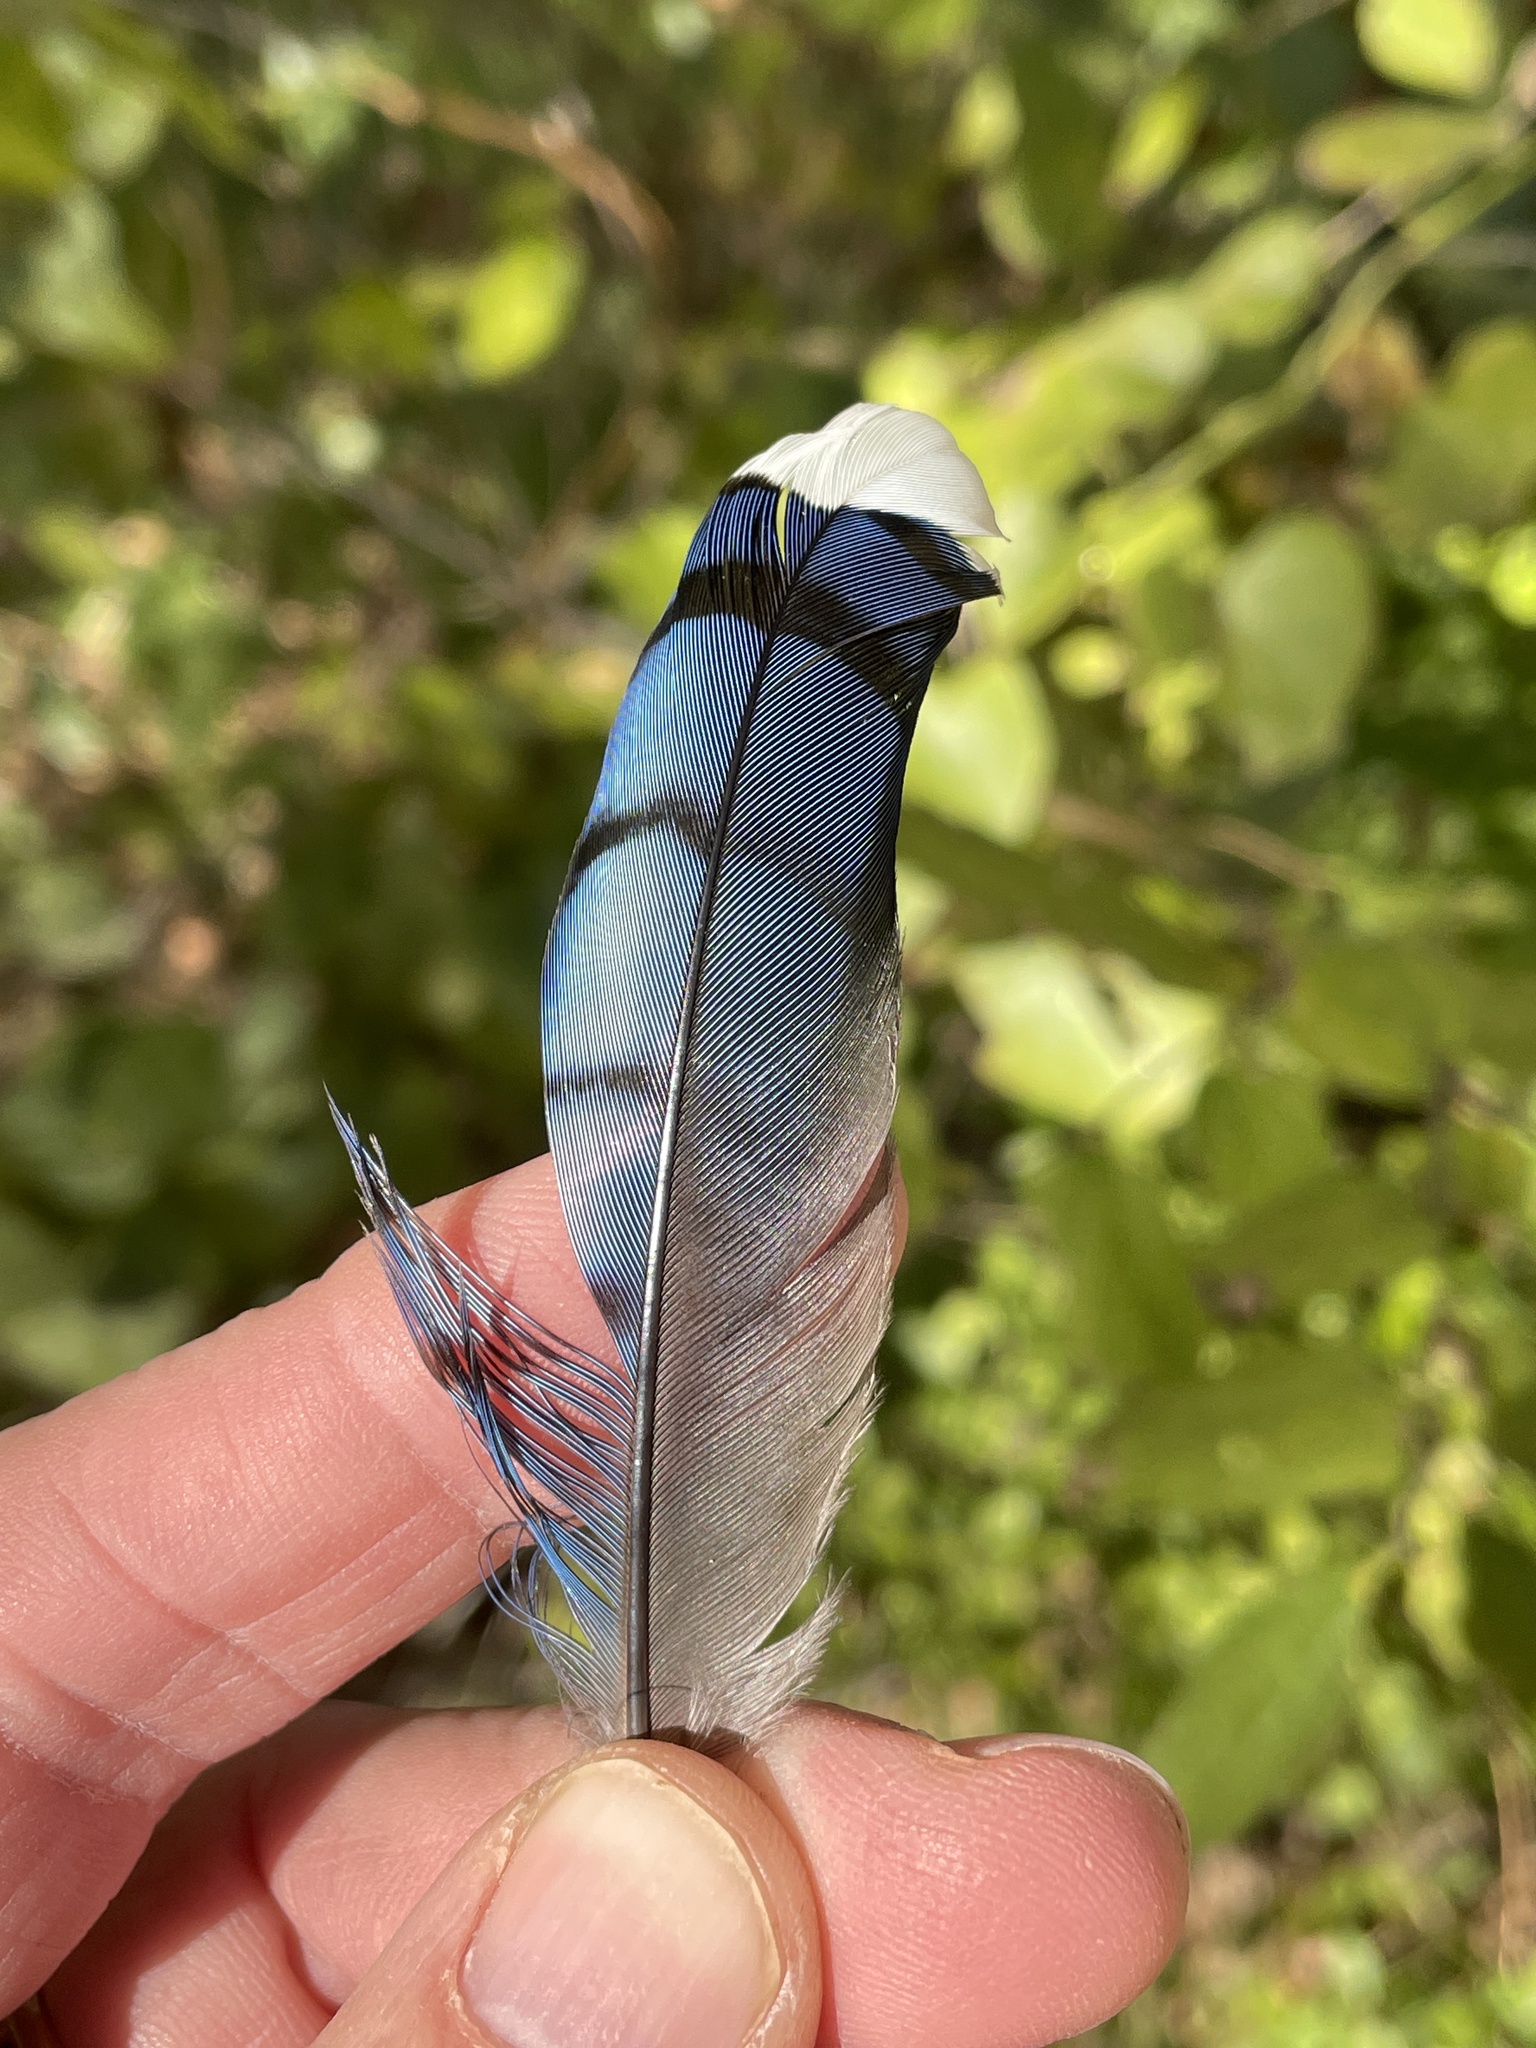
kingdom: Animalia
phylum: Chordata
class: Aves
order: Passeriformes
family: Corvidae
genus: Cyanocitta
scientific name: Cyanocitta cristata
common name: Blue jay
